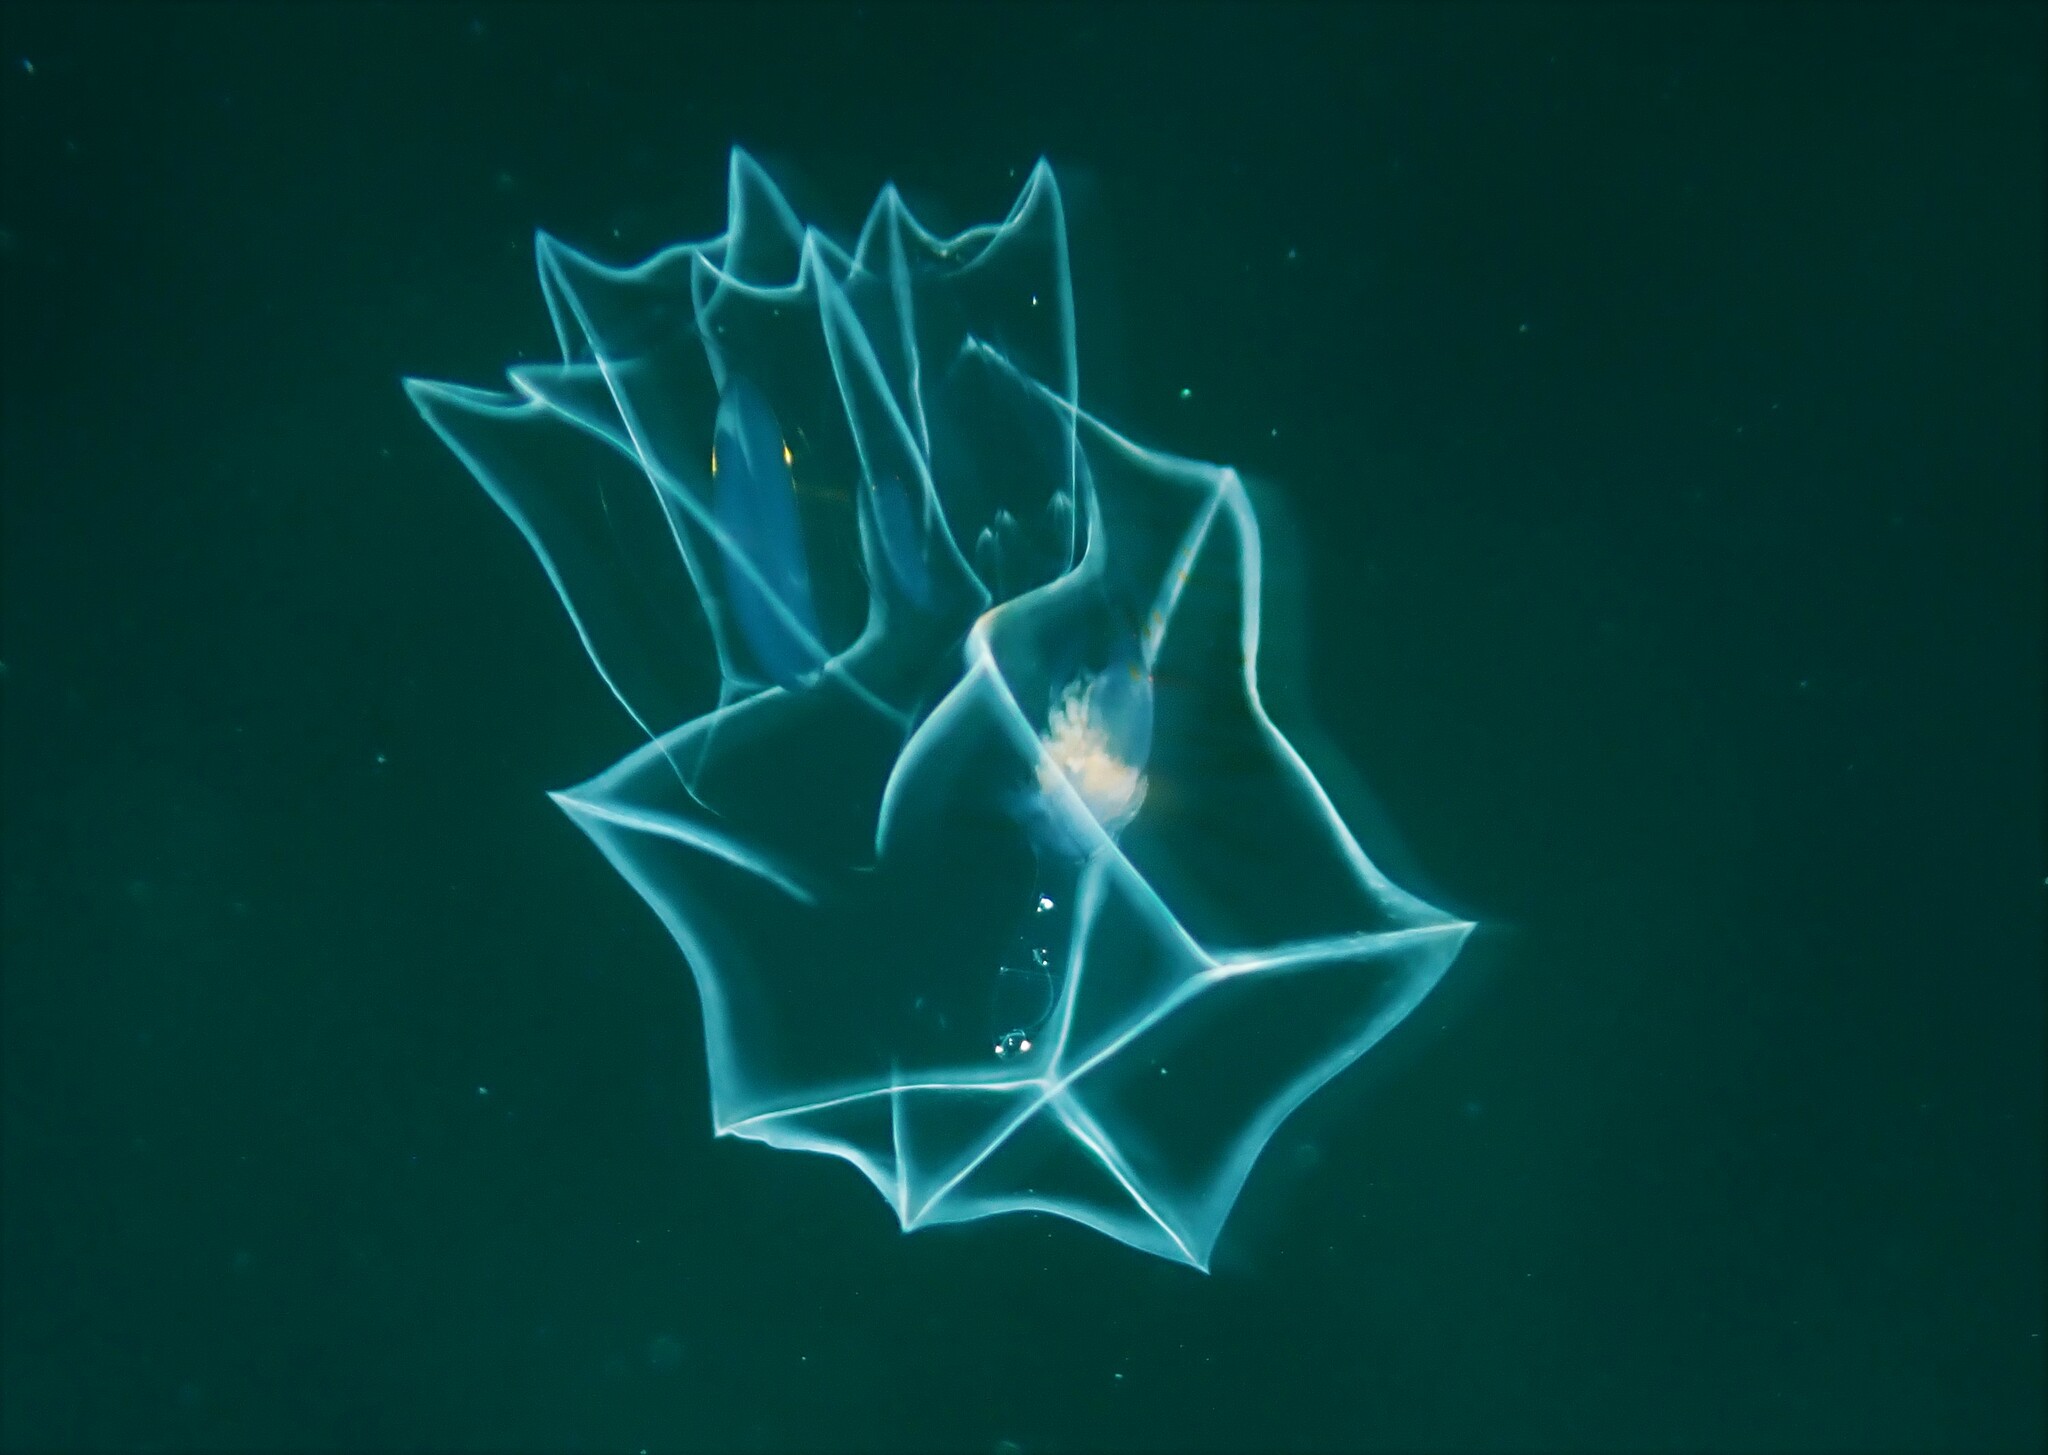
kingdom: Animalia
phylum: Cnidaria
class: Hydrozoa
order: Siphonophorae
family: Abylidae
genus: Bassia
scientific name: Bassia bassensis
